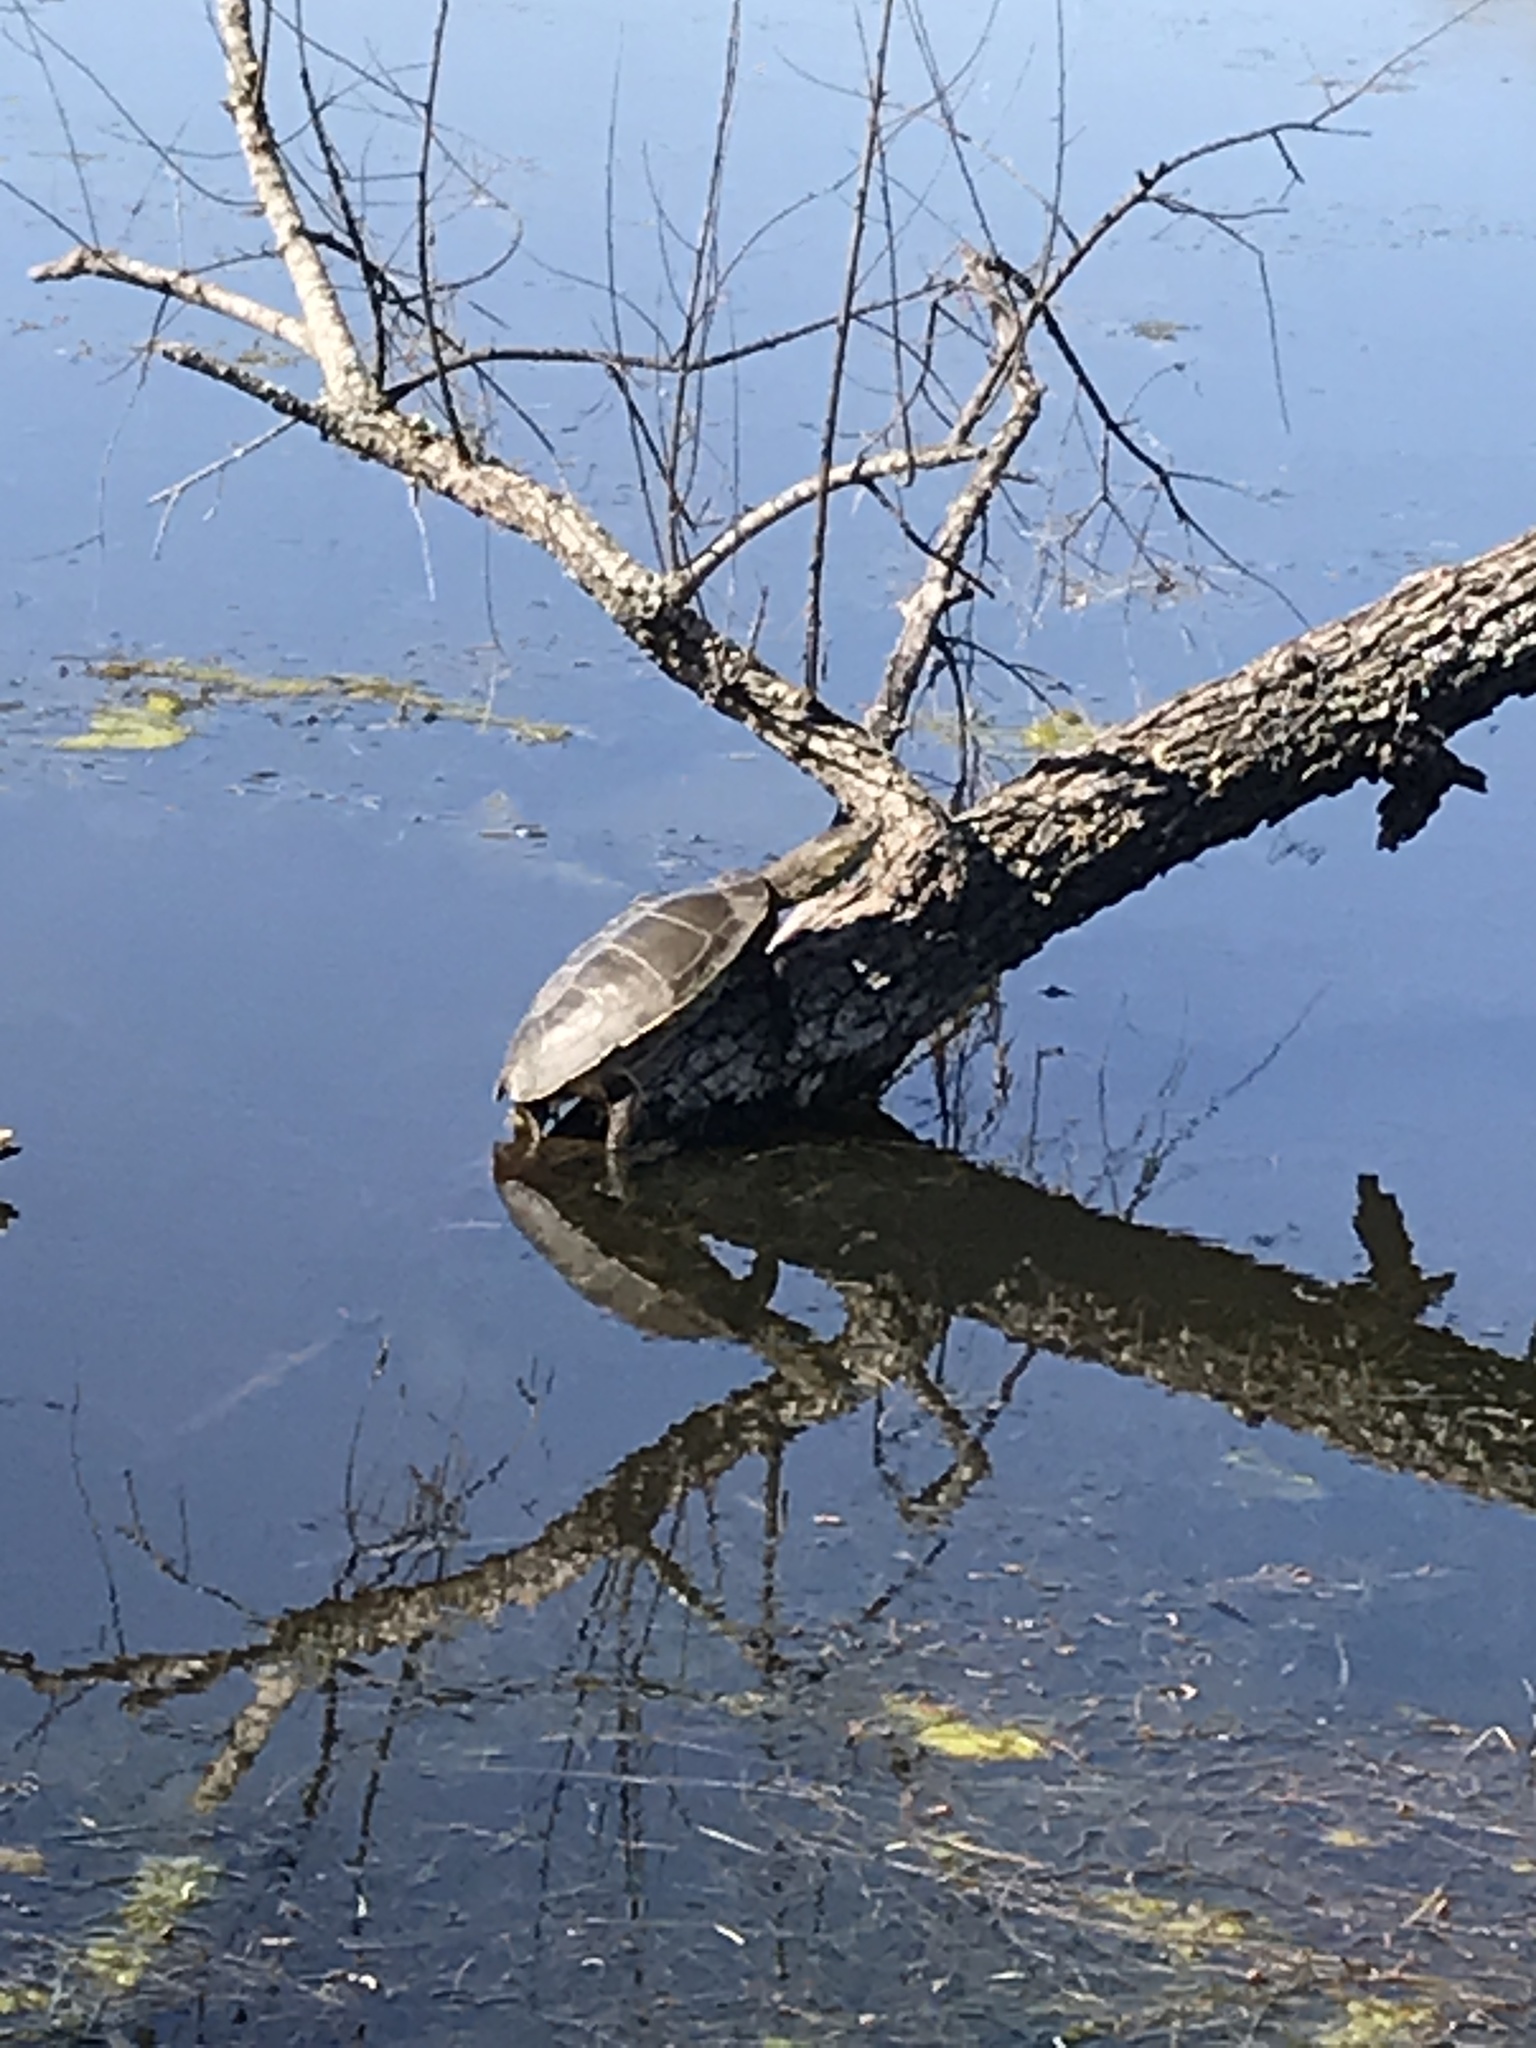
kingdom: Animalia
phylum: Chordata
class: Testudines
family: Chelidae
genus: Phrynops
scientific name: Phrynops hilarii
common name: Side-necked turtle of saint hillaire
